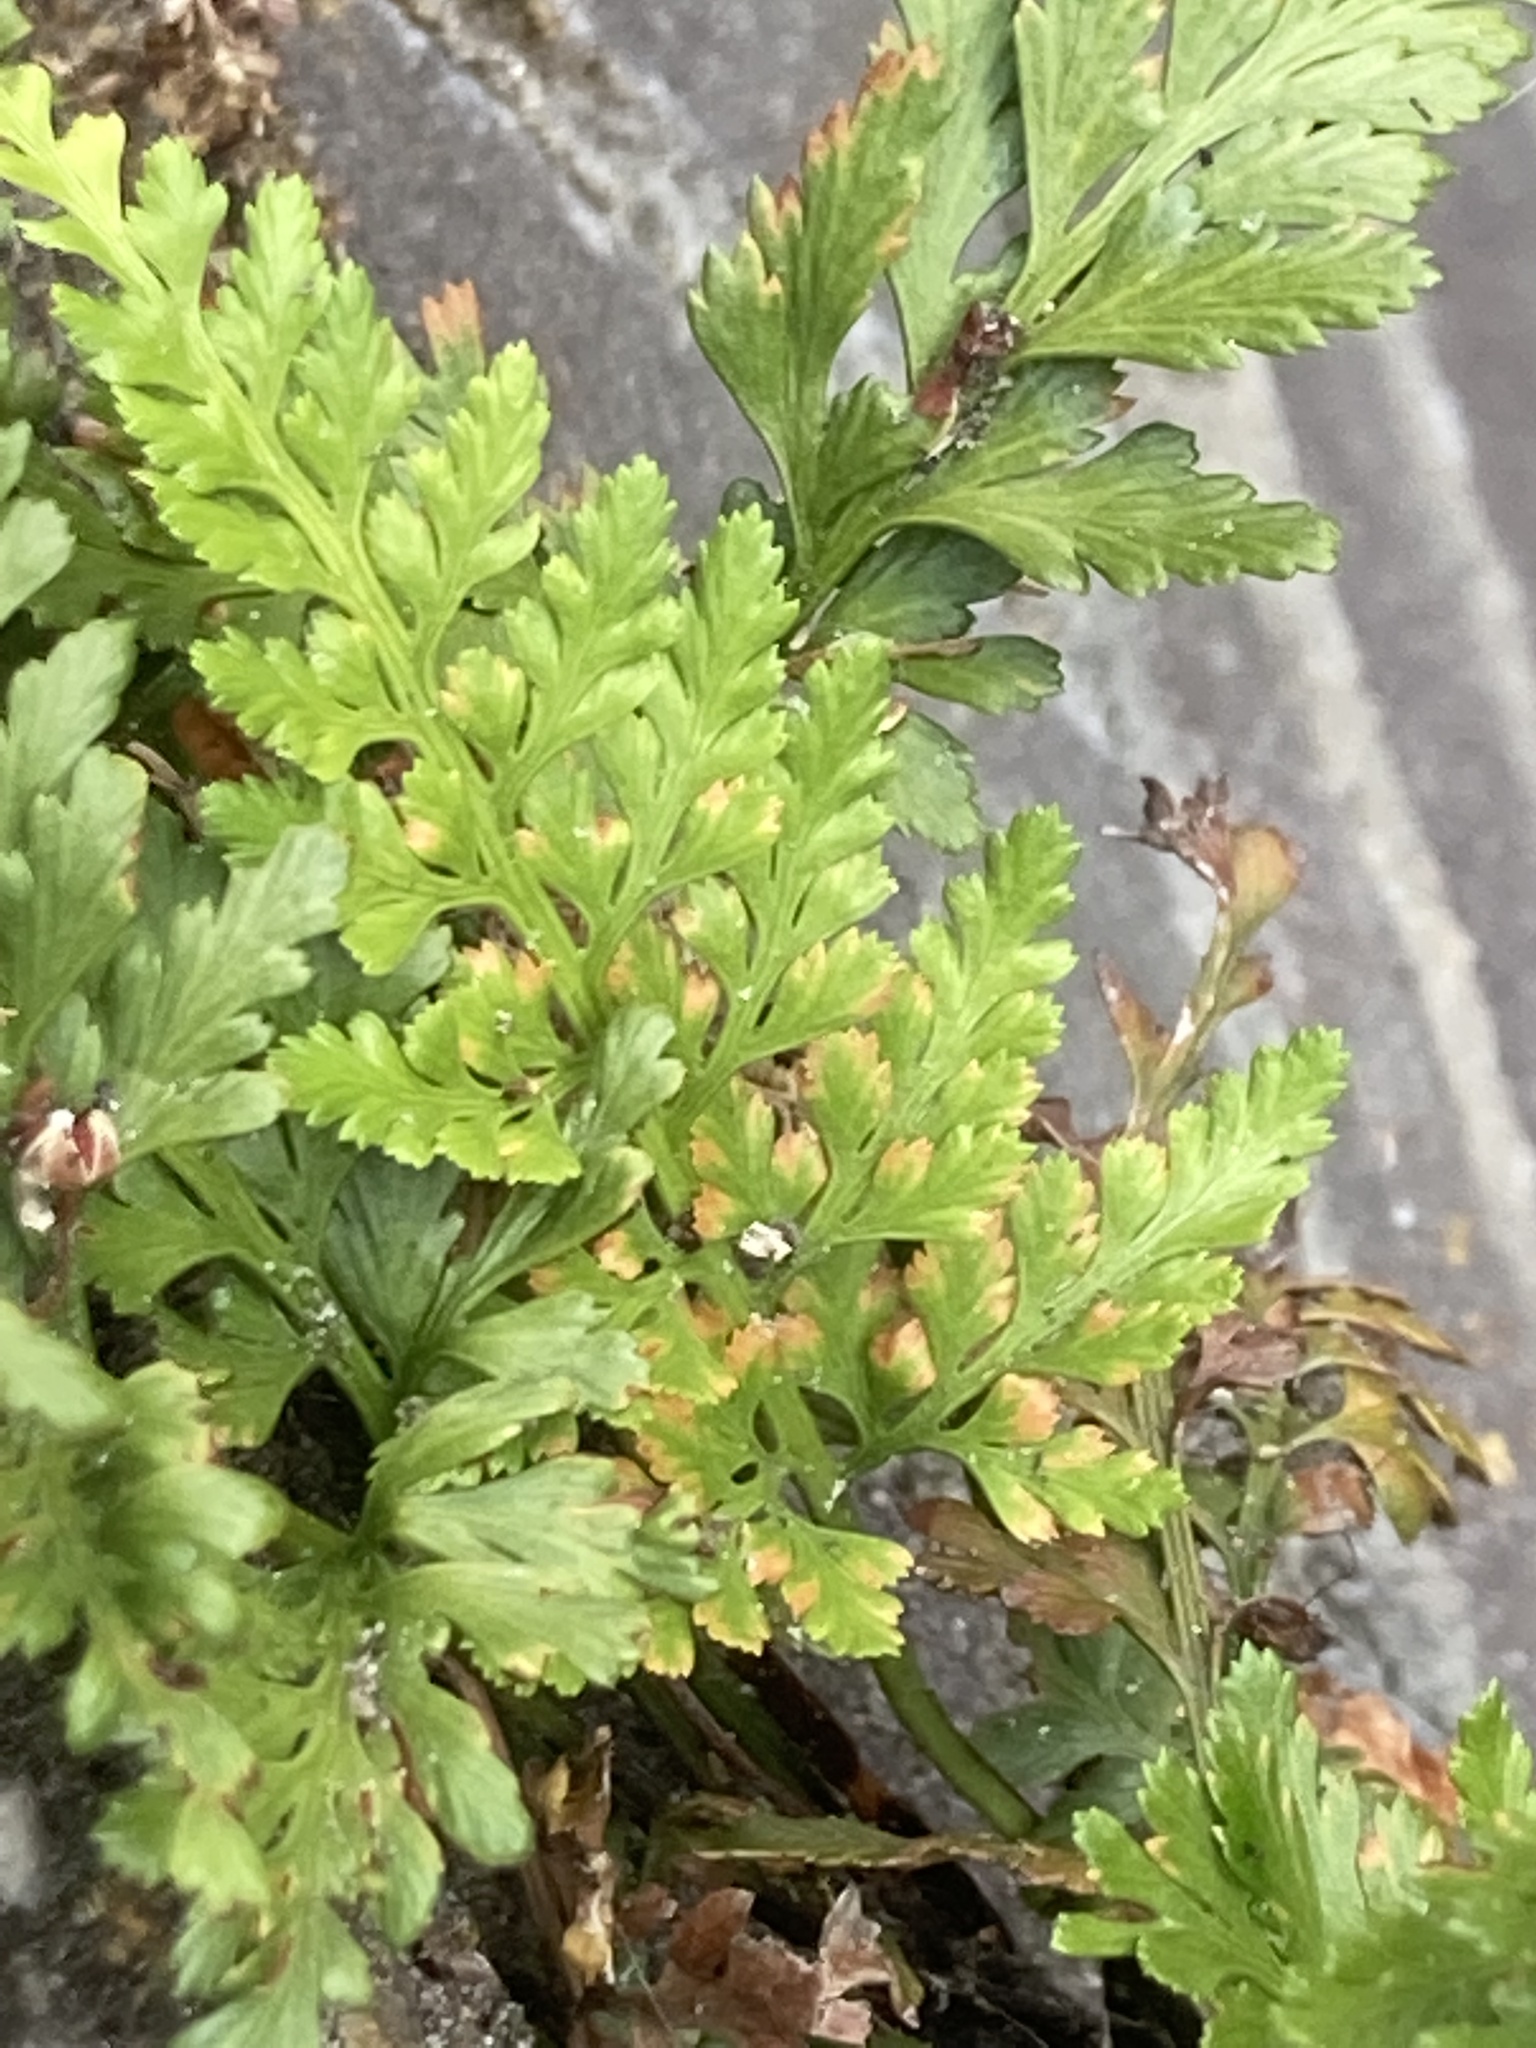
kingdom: Plantae
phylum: Tracheophyta
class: Polypodiopsida
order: Polypodiales
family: Aspleniaceae
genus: Asplenium
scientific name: Asplenium adiantum-nigrum
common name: Black spleenwort
